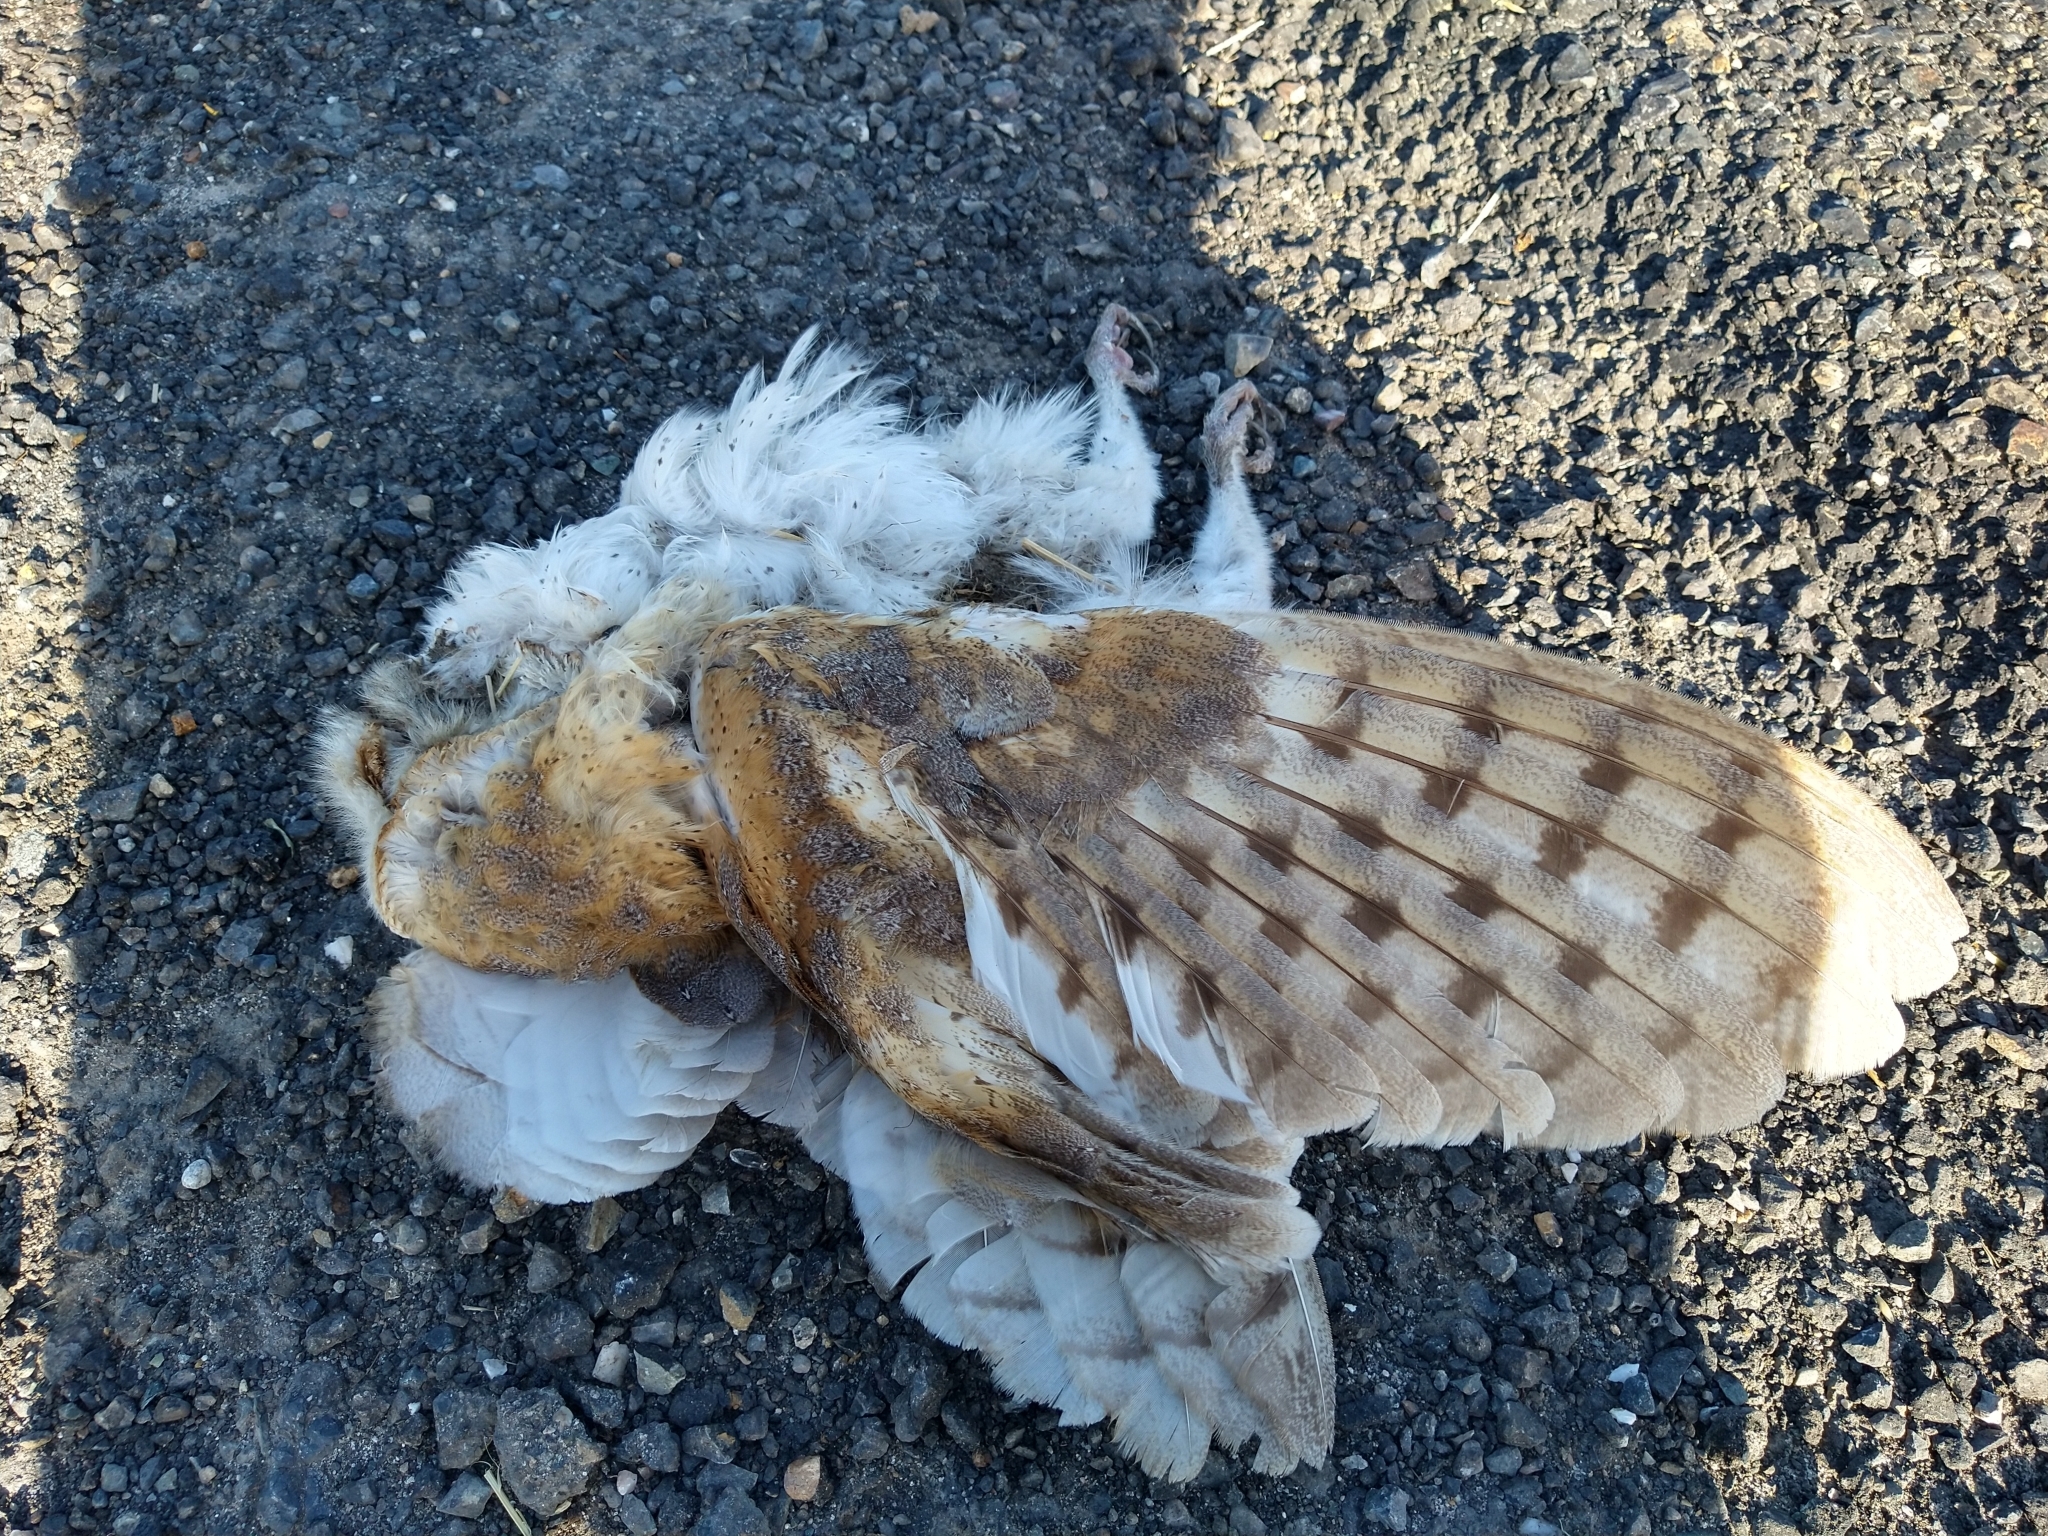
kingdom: Animalia
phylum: Chordata
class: Aves
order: Strigiformes
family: Tytonidae
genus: Tyto
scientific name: Tyto alba
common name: Barn owl
